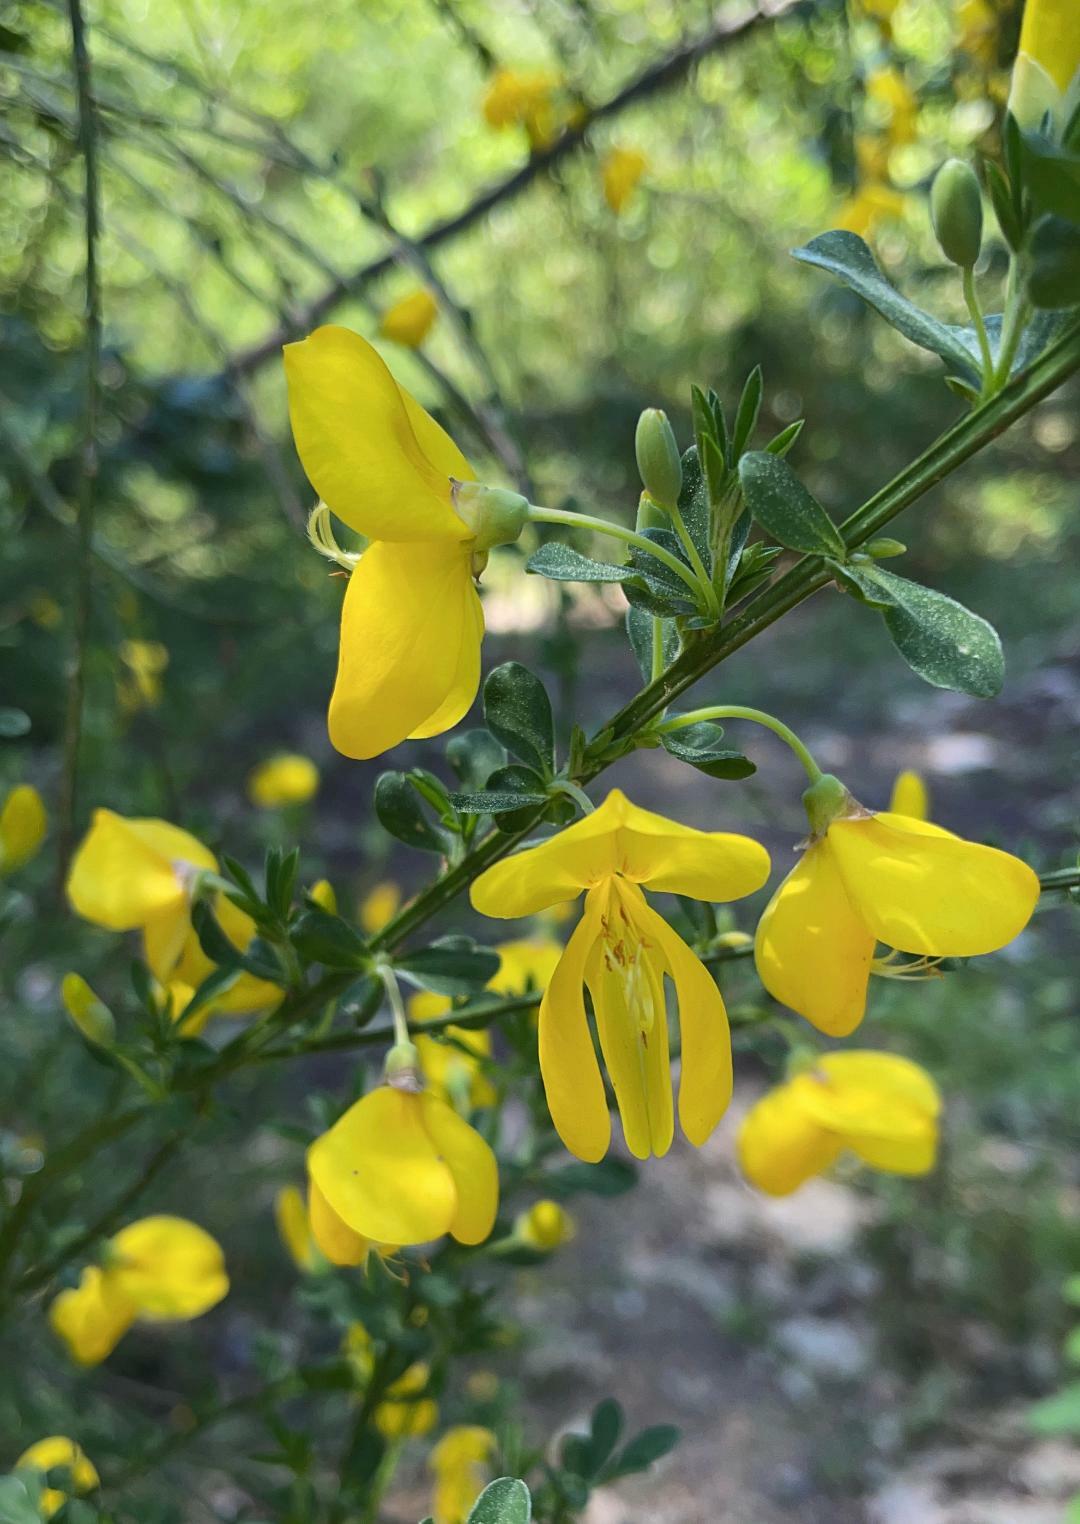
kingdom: Plantae
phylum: Tracheophyta
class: Magnoliopsida
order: Fabales
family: Fabaceae
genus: Cytisus
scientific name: Cytisus scoparius
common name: Scotch broom
